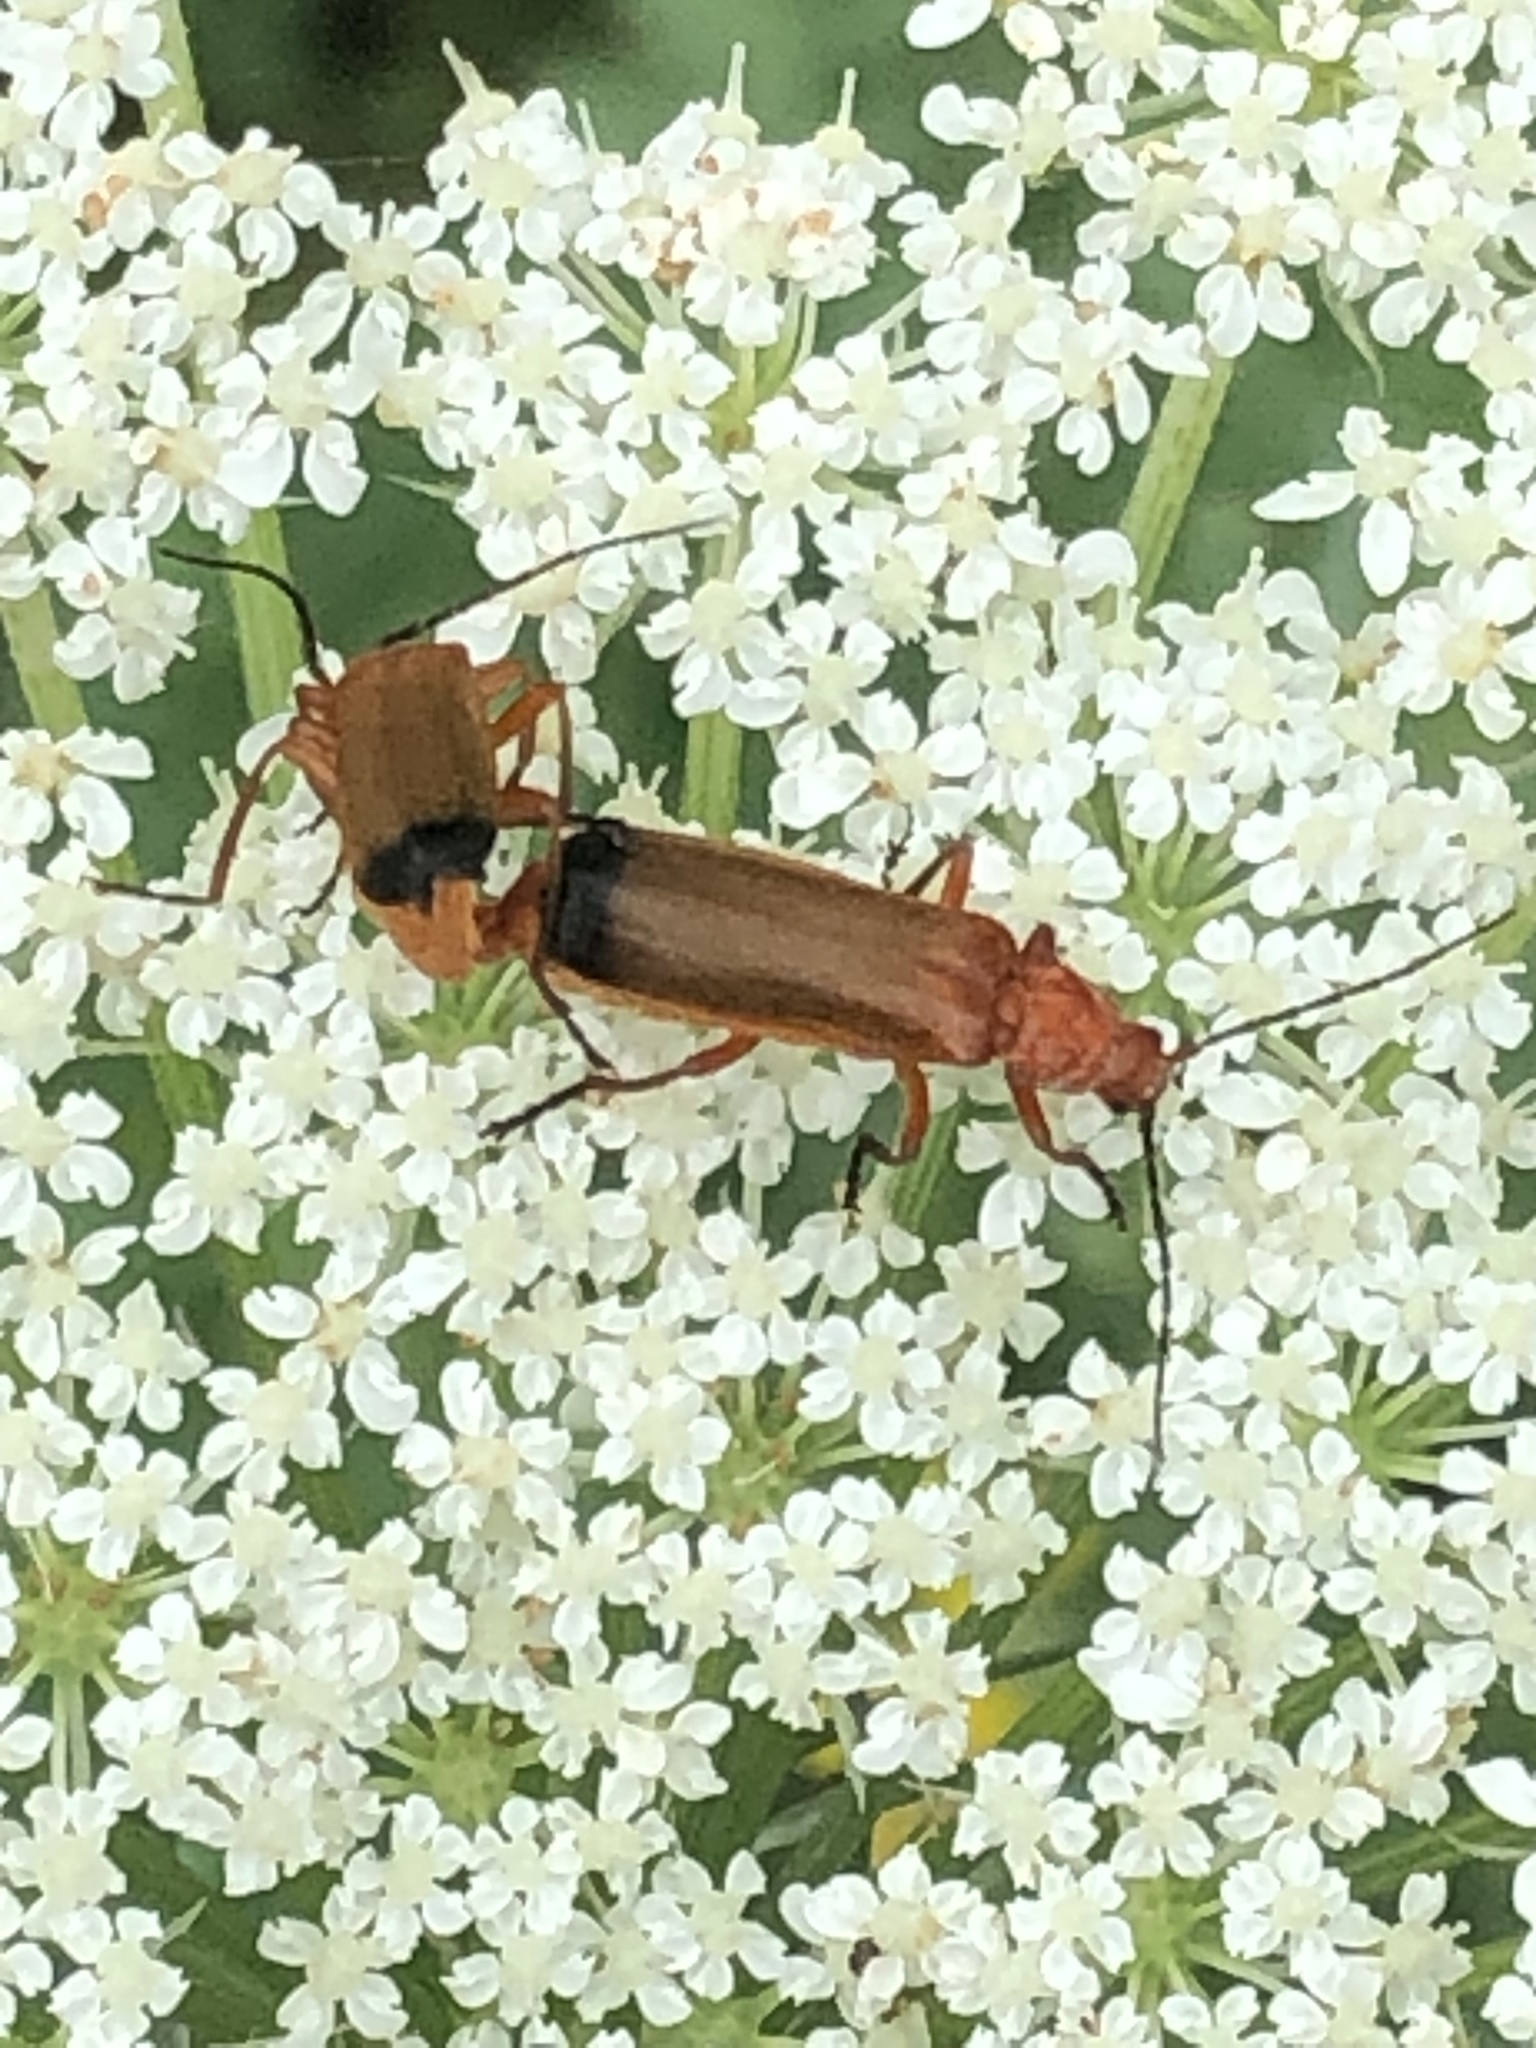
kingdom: Animalia
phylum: Arthropoda
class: Insecta
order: Coleoptera
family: Cantharidae
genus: Rhagonycha
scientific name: Rhagonycha fulva
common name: Common red soldier beetle
